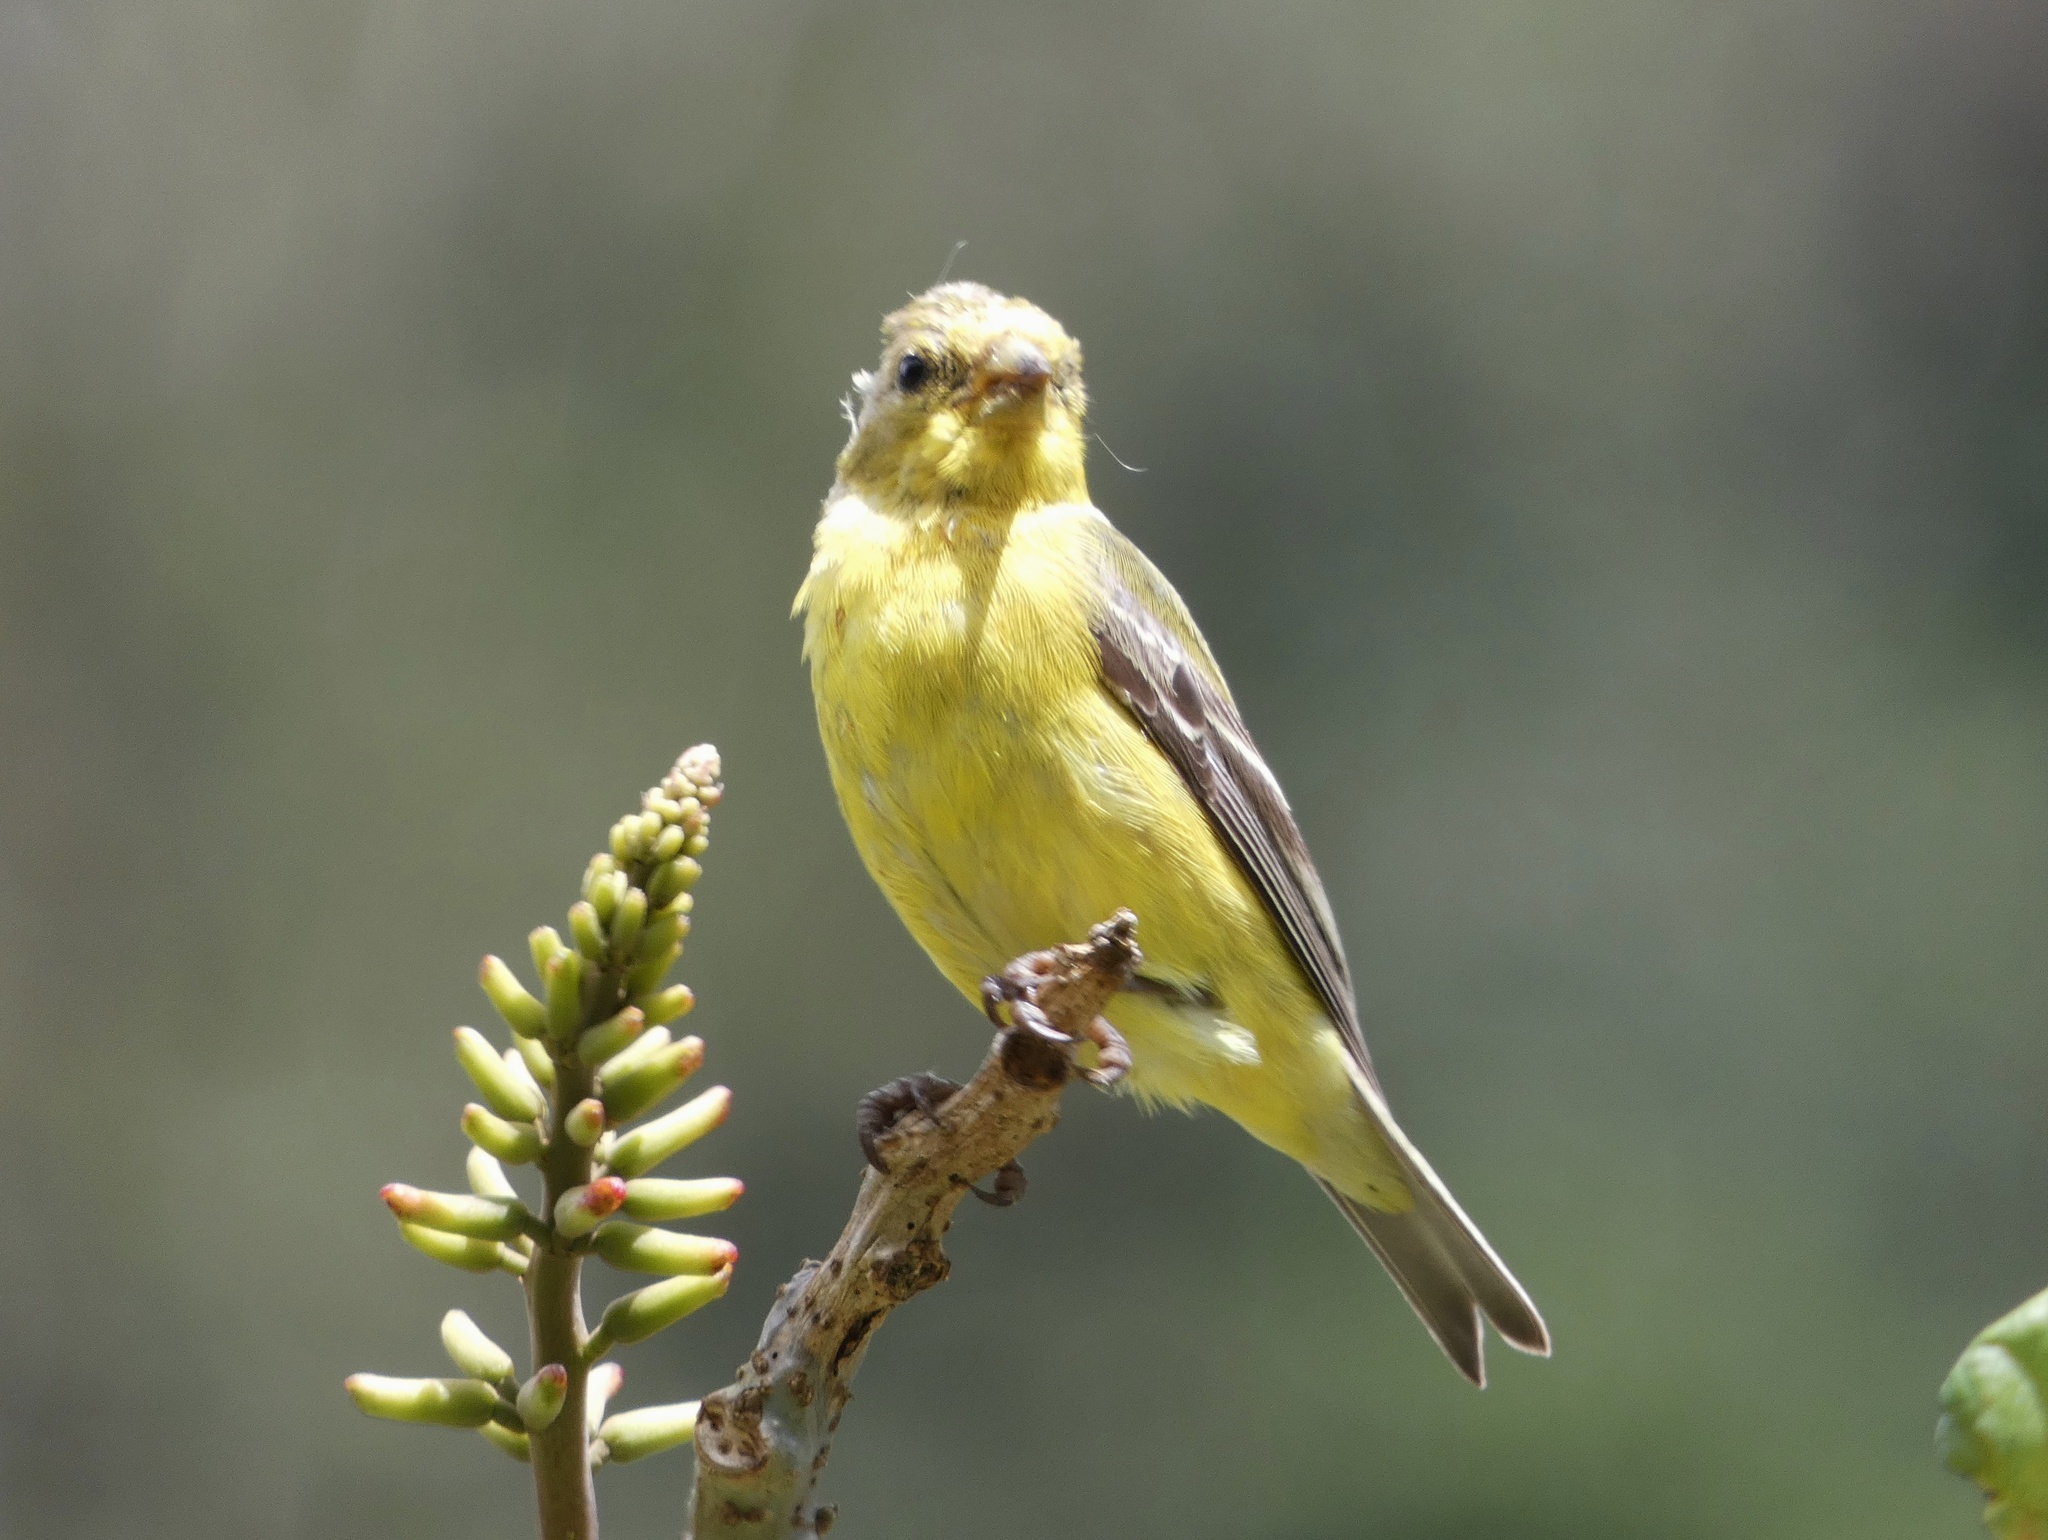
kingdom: Animalia
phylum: Chordata
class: Aves
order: Passeriformes
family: Fringillidae
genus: Spinus
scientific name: Spinus psaltria
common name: Lesser goldfinch
